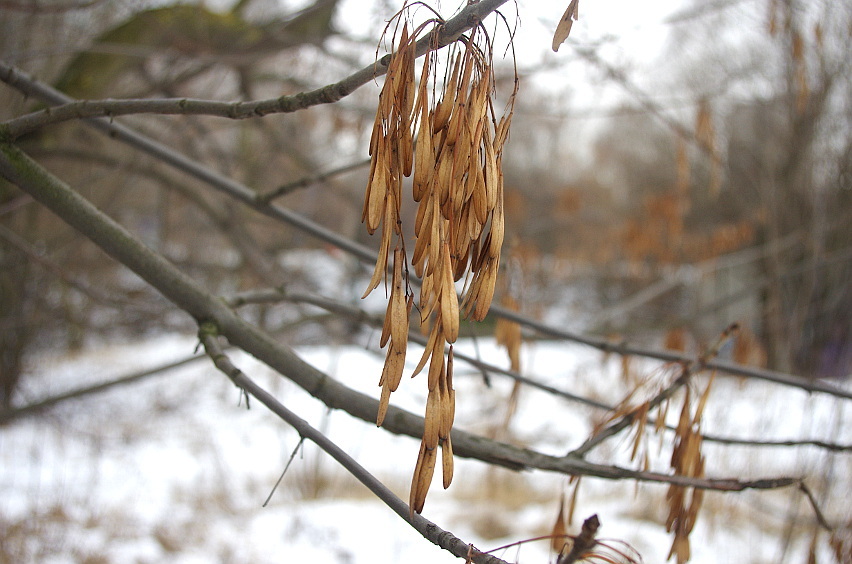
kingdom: Plantae
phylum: Tracheophyta
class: Magnoliopsida
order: Lamiales
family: Oleaceae
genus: Fraxinus
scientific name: Fraxinus pennsylvanica
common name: Green ash
